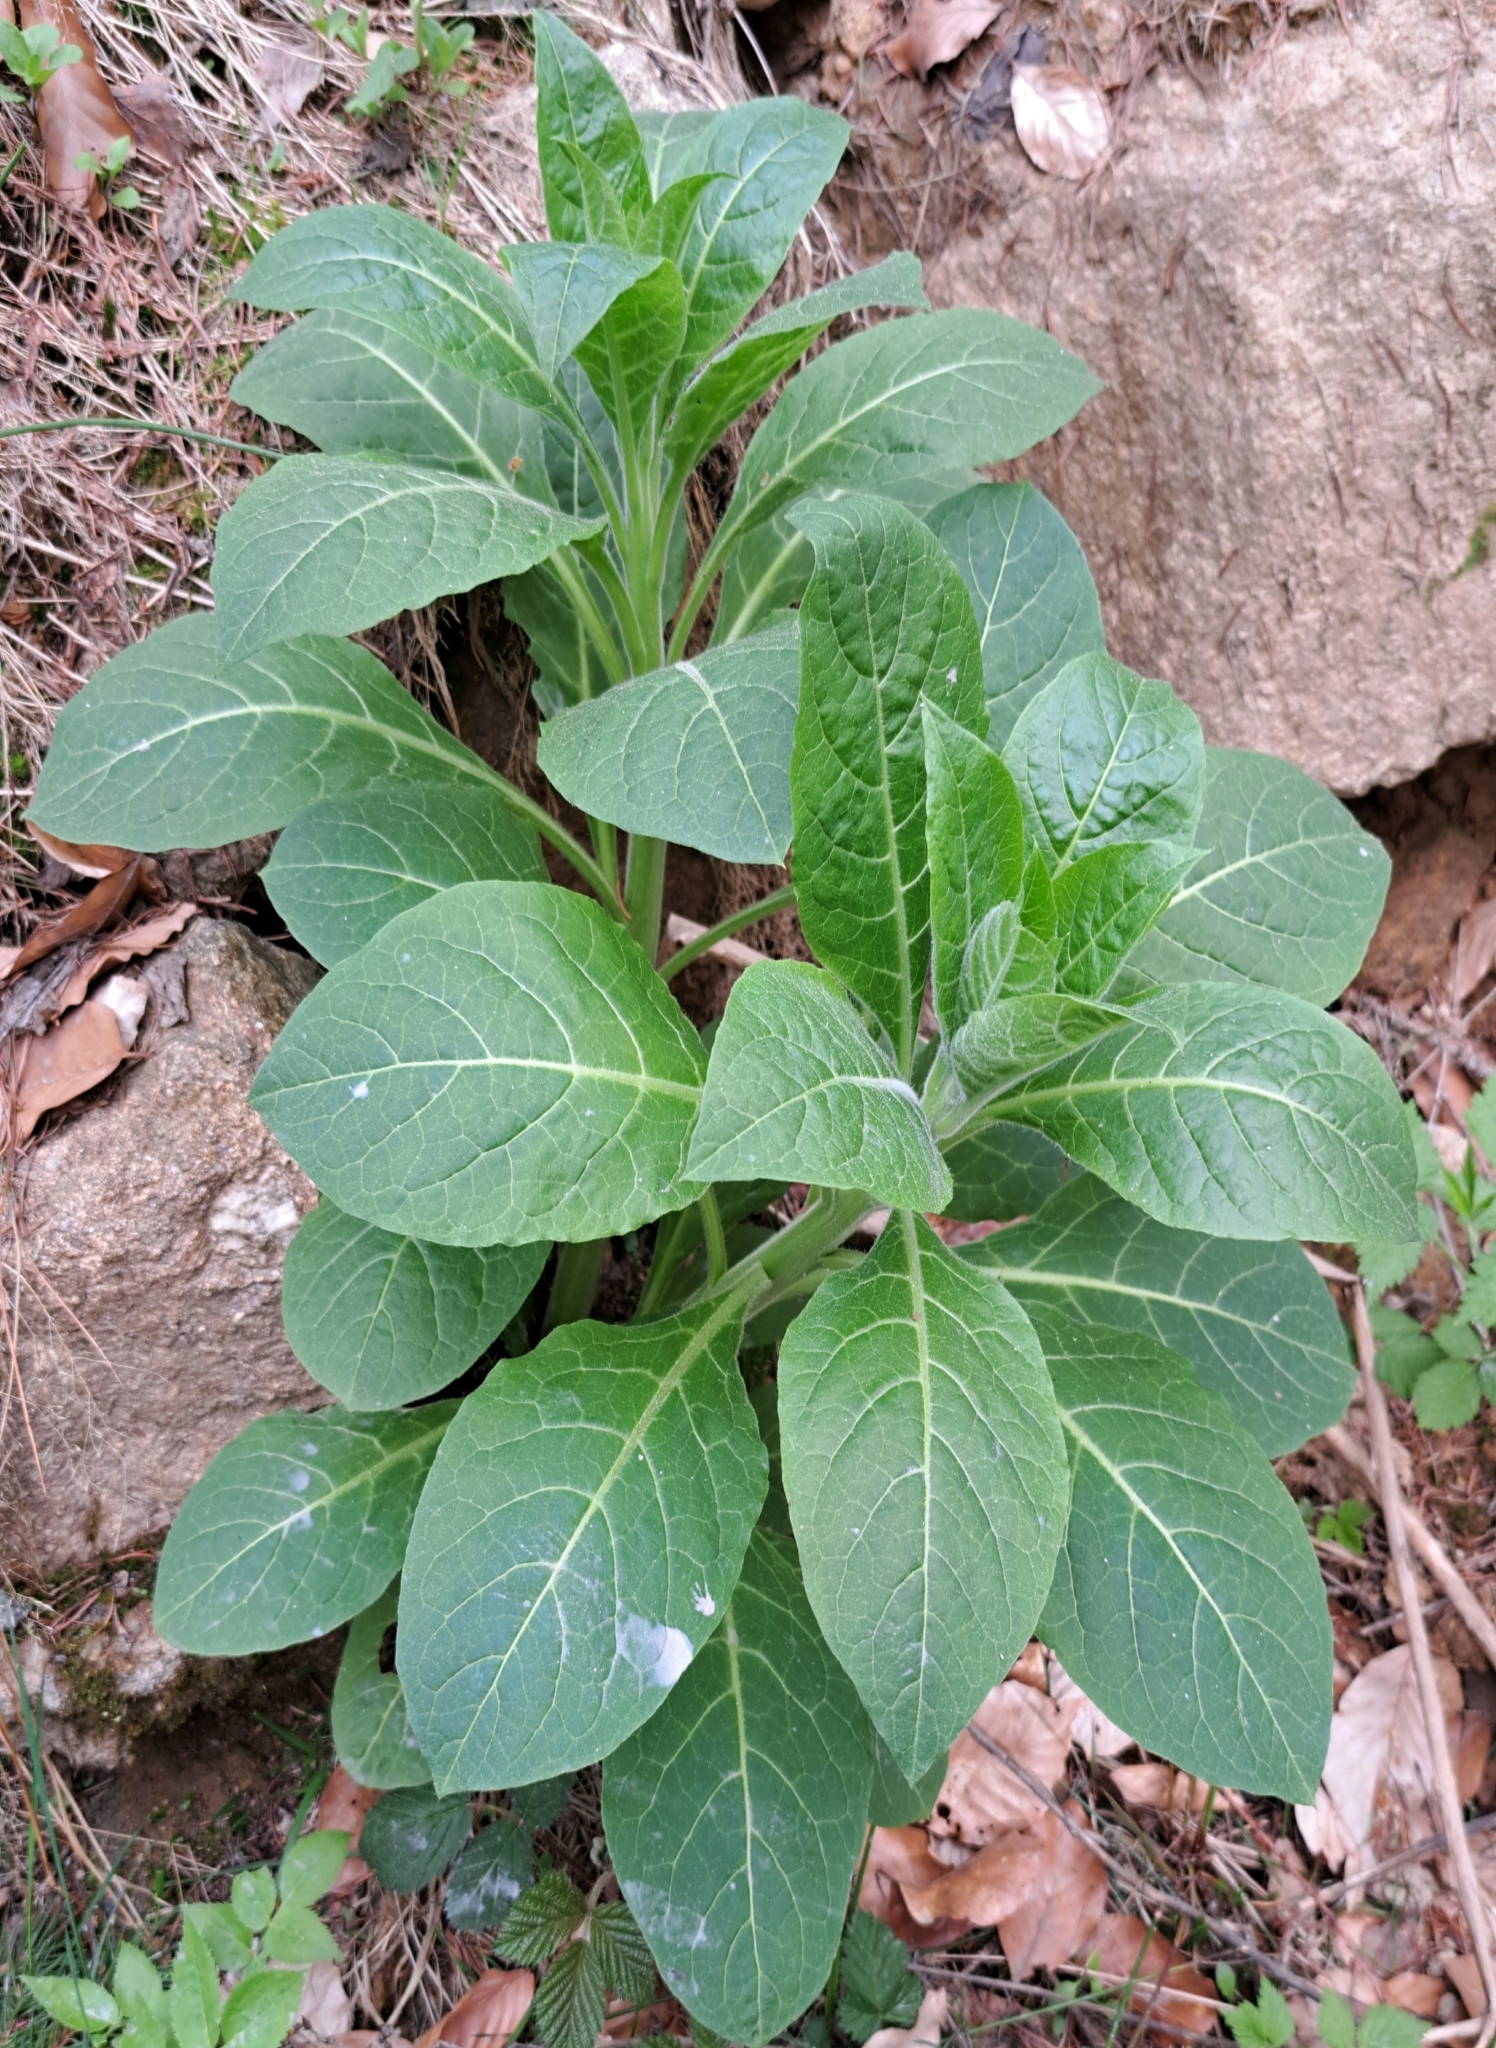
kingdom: Plantae
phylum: Tracheophyta
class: Magnoliopsida
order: Solanales
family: Solanaceae
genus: Atropa
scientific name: Atropa belladonna
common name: Deadly nightshade
